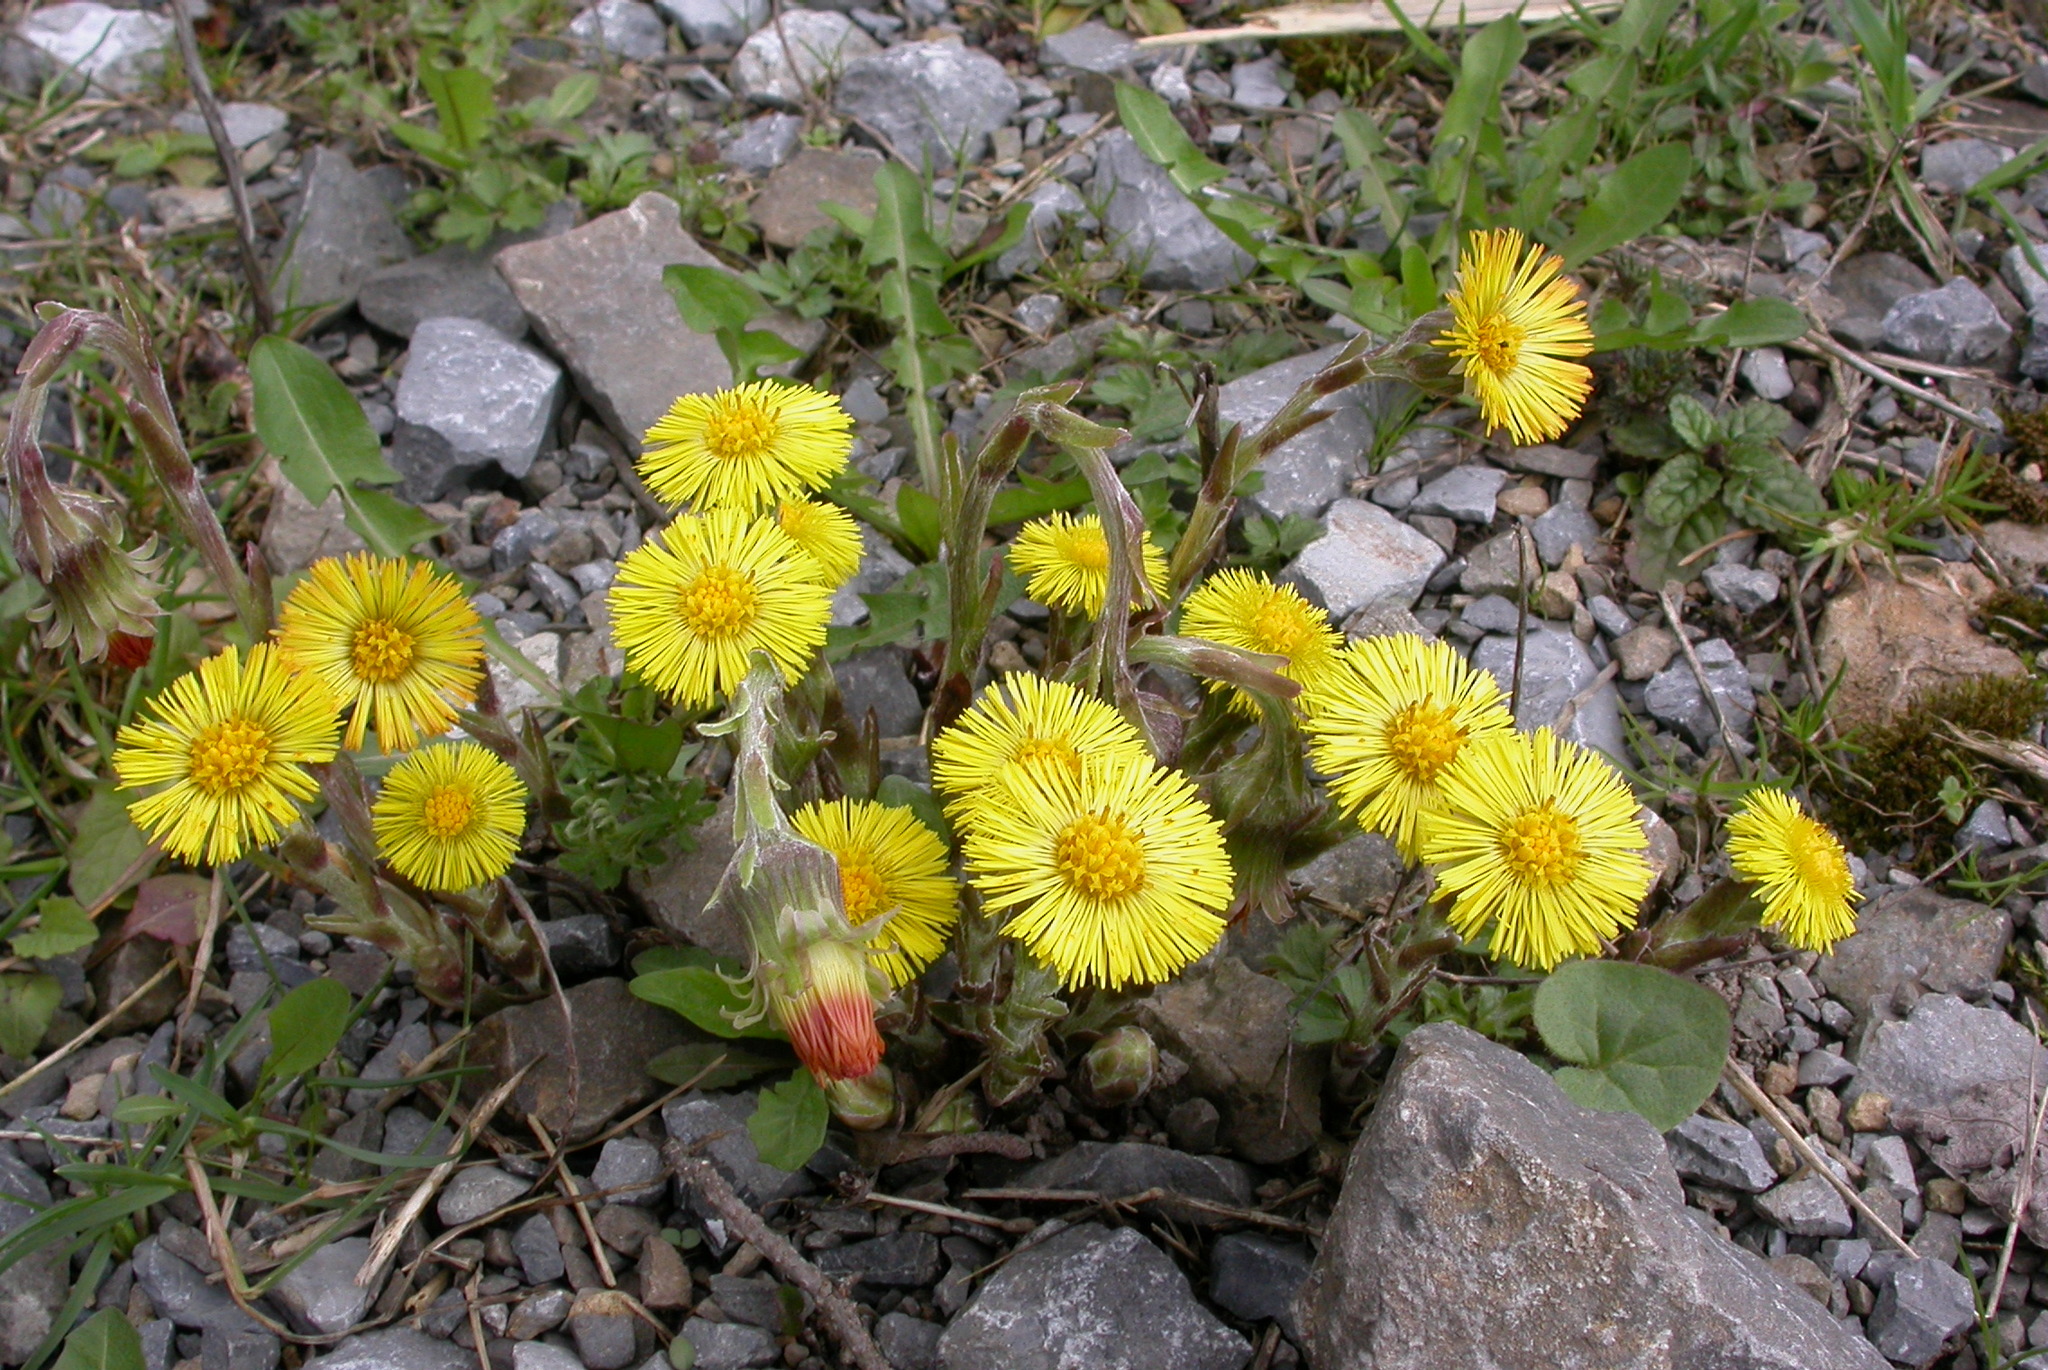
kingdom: Plantae
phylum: Tracheophyta
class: Magnoliopsida
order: Asterales
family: Asteraceae
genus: Tussilago
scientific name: Tussilago farfara
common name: Coltsfoot
